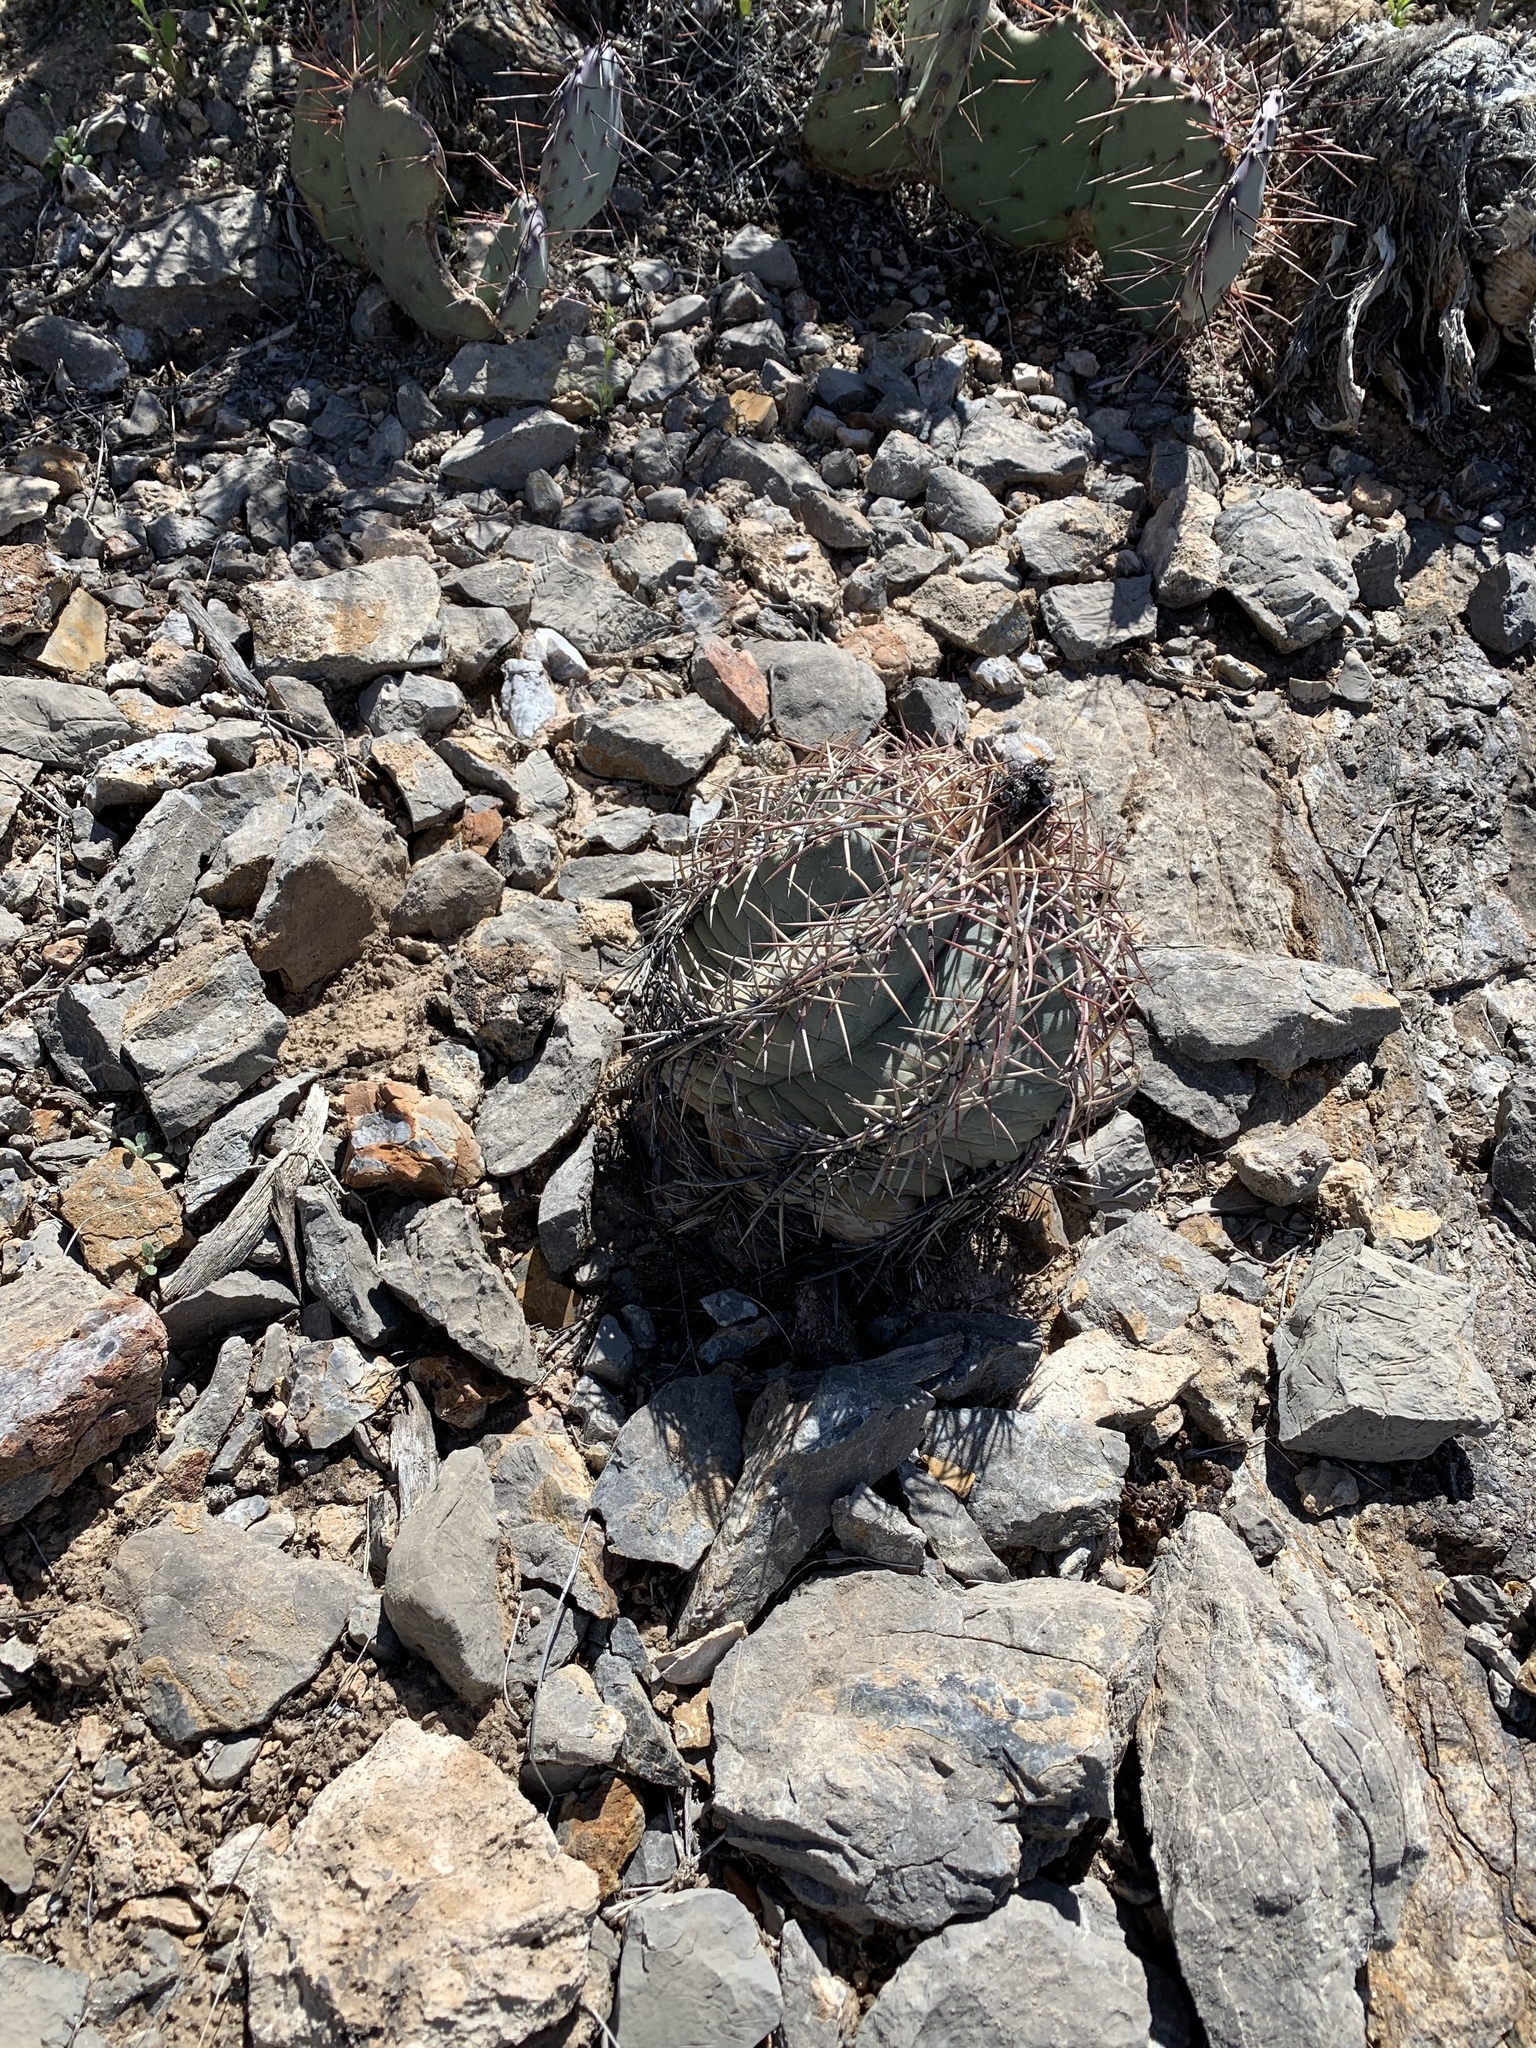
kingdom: Plantae
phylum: Tracheophyta
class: Magnoliopsida
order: Caryophyllales
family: Cactaceae
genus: Echinocactus
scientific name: Echinocactus horizonthalonius
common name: Devilshead
